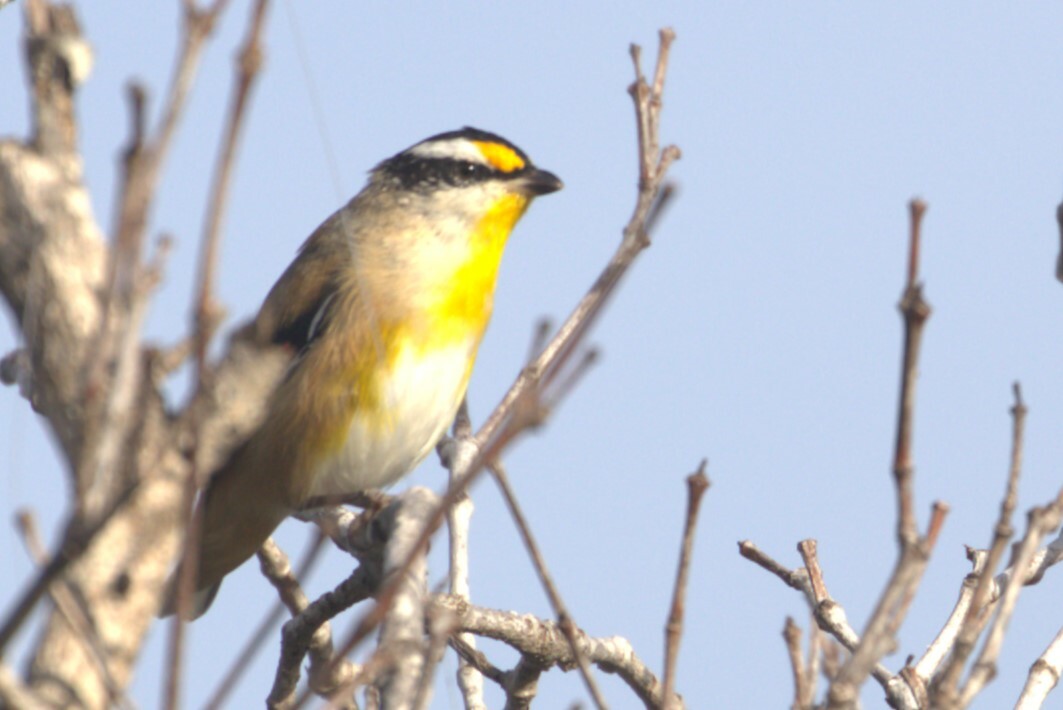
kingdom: Animalia
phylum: Chordata
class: Aves
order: Passeriformes
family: Pardalotidae
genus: Pardalotus
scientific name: Pardalotus striatus
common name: Striated pardalote
